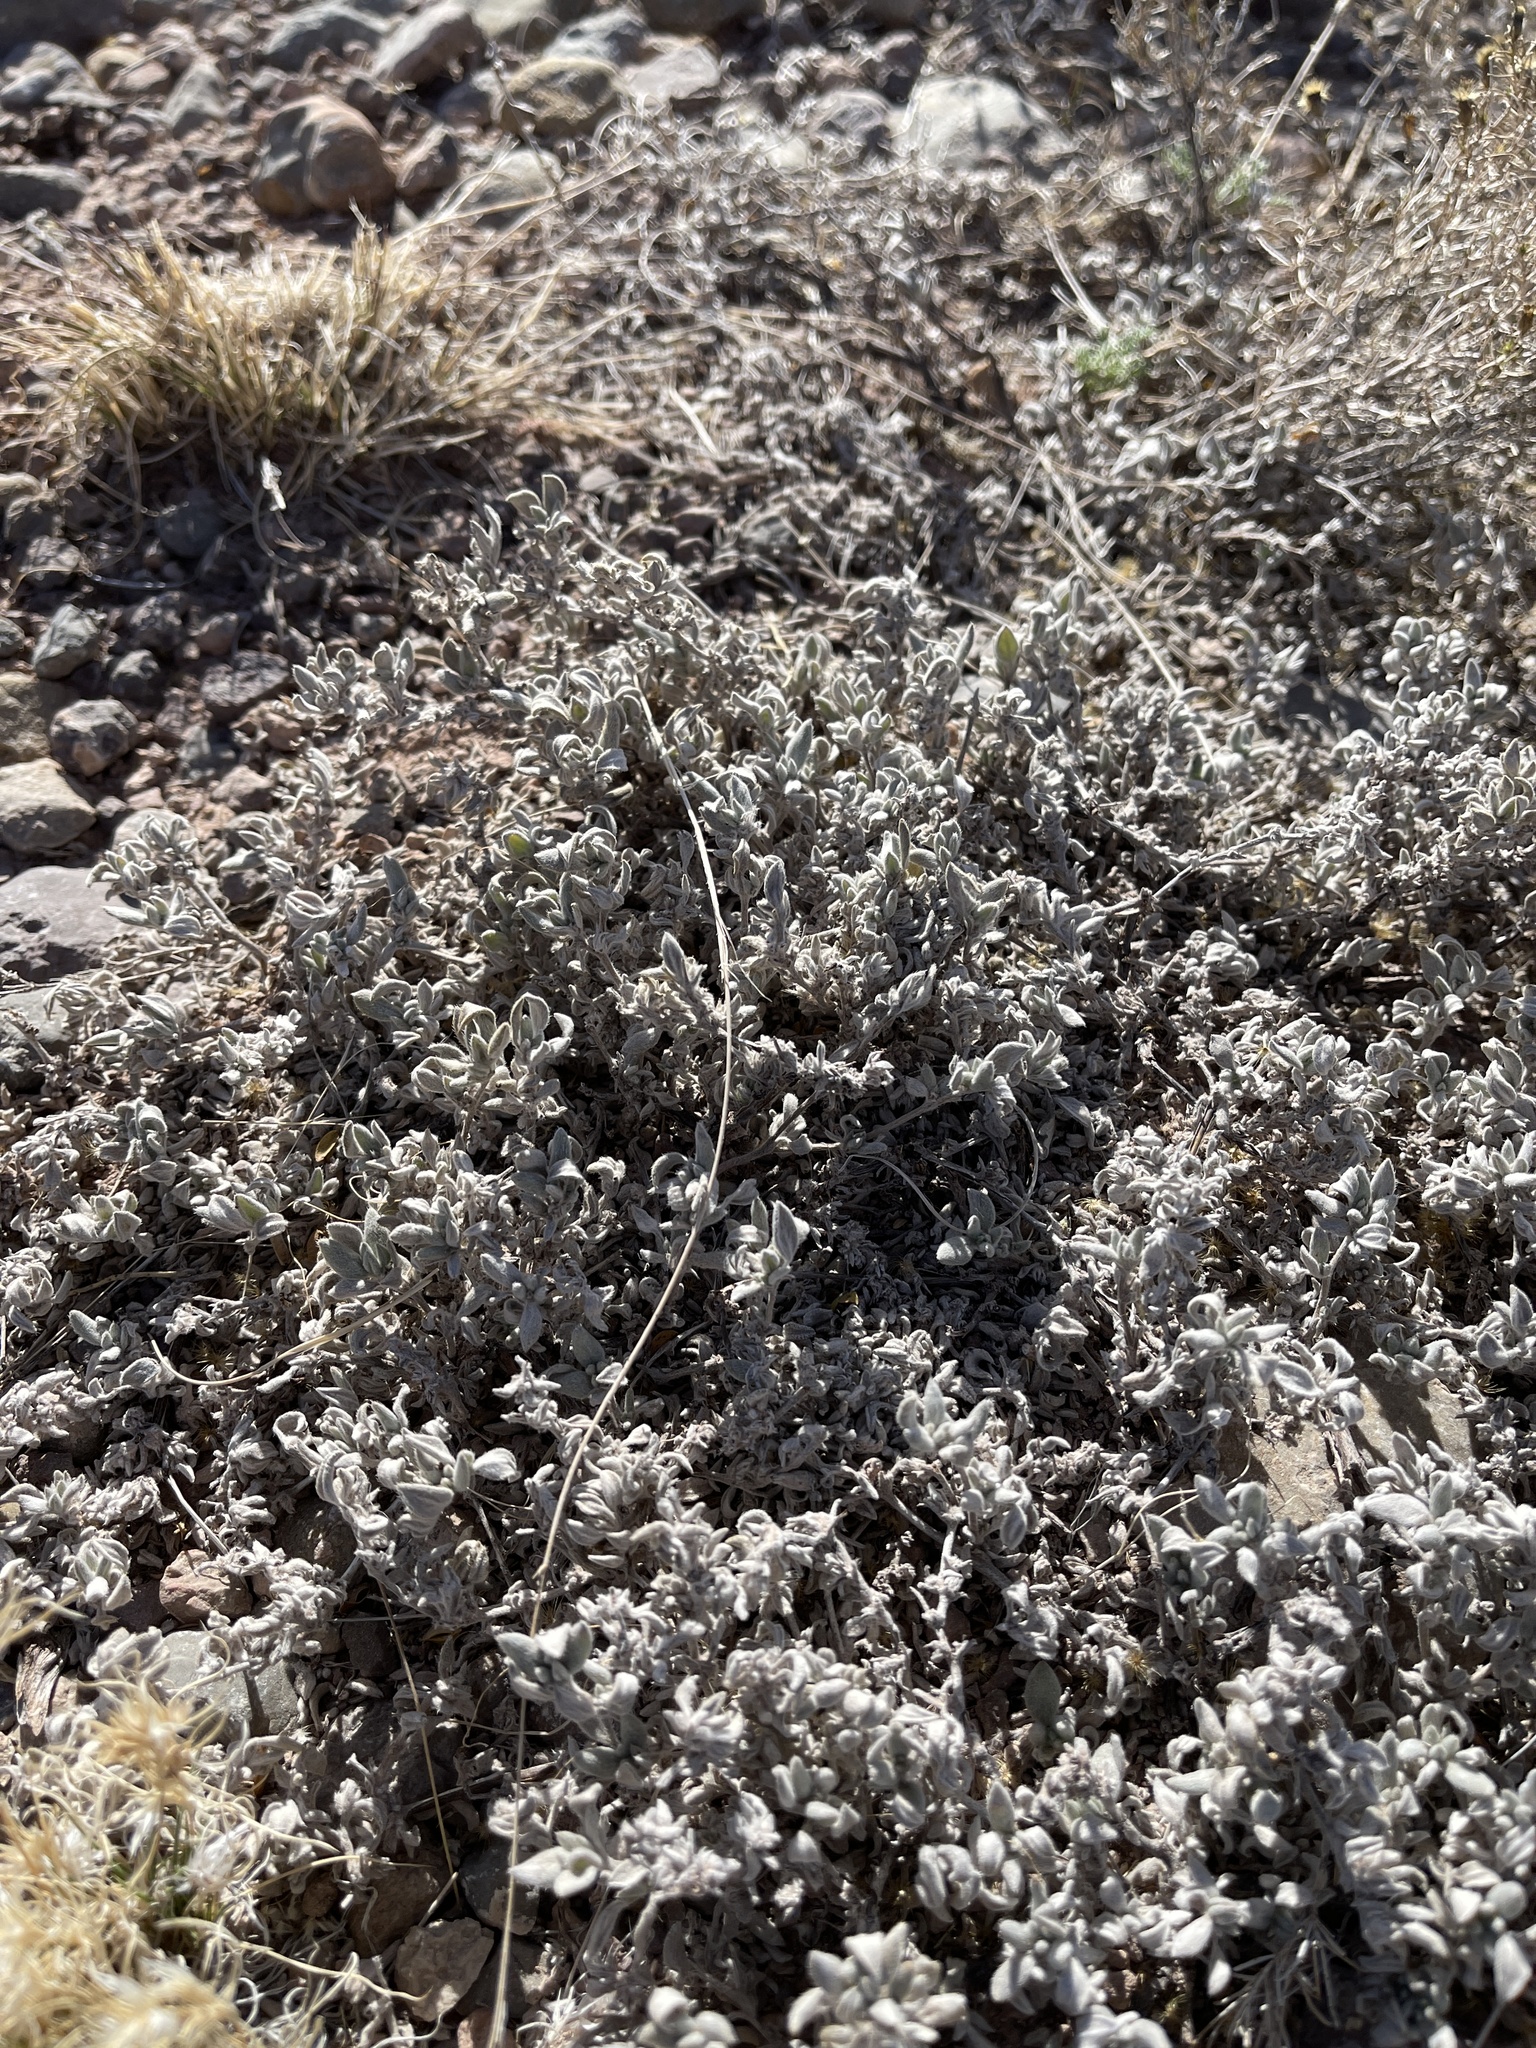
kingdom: Plantae
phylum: Tracheophyta
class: Magnoliopsida
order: Boraginales
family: Ehretiaceae
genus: Tiquilia
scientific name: Tiquilia canescens
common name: Hairy tiquilia
